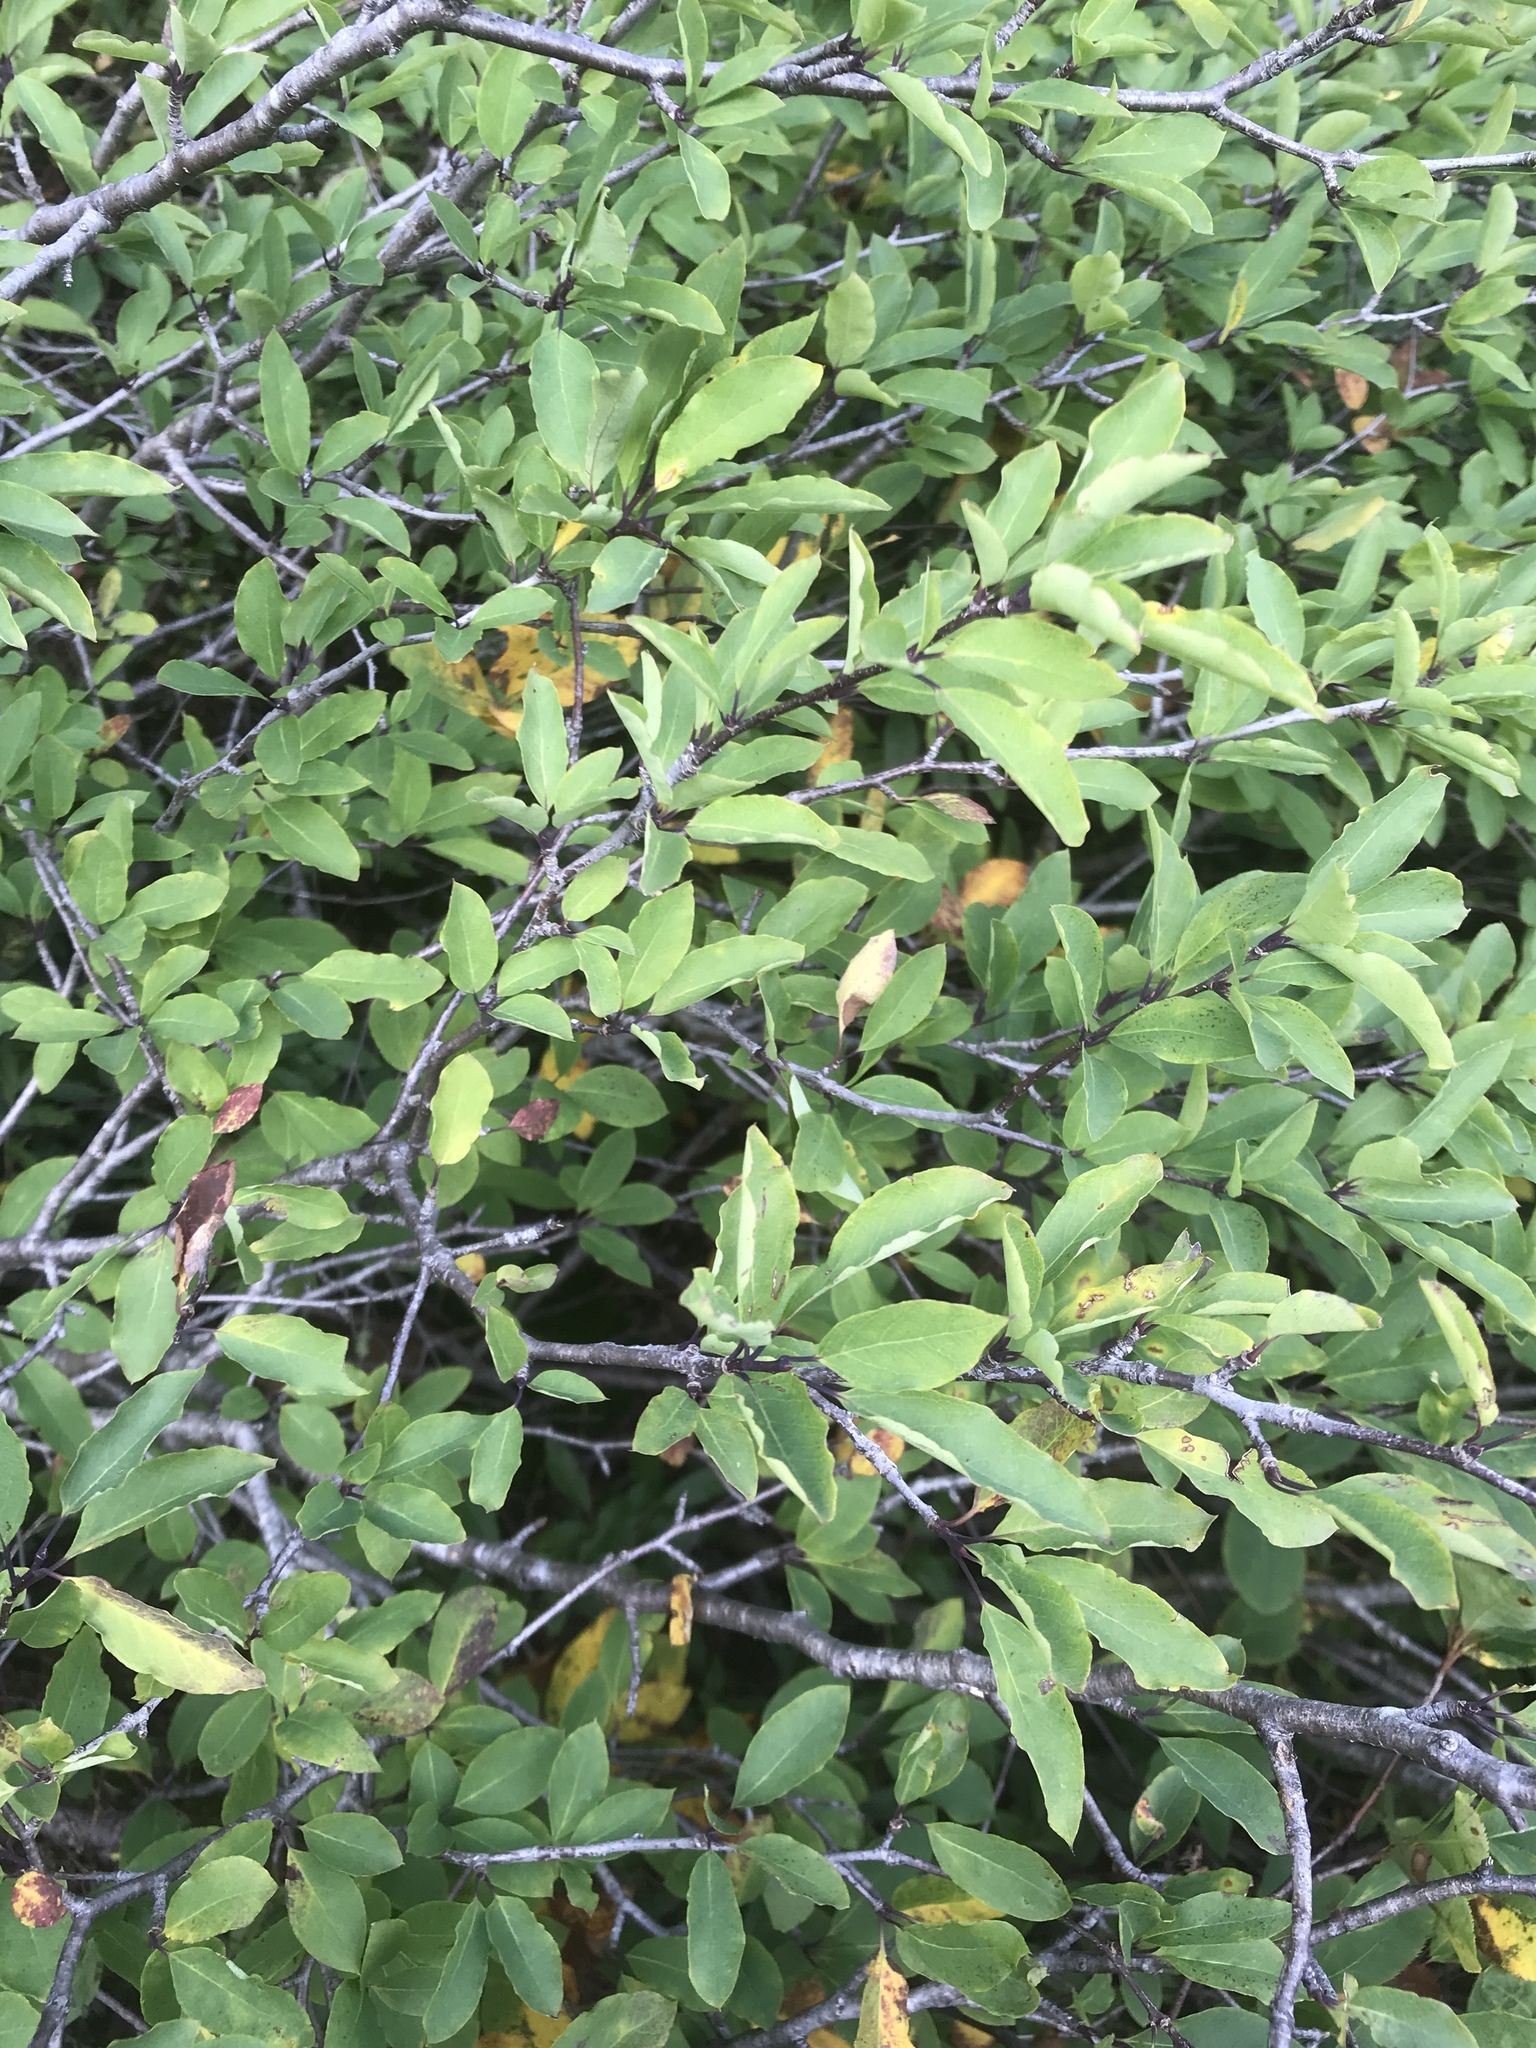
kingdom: Plantae
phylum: Tracheophyta
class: Magnoliopsida
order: Aquifoliales
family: Aquifoliaceae
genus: Ilex
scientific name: Ilex mucronata
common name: Catberry
